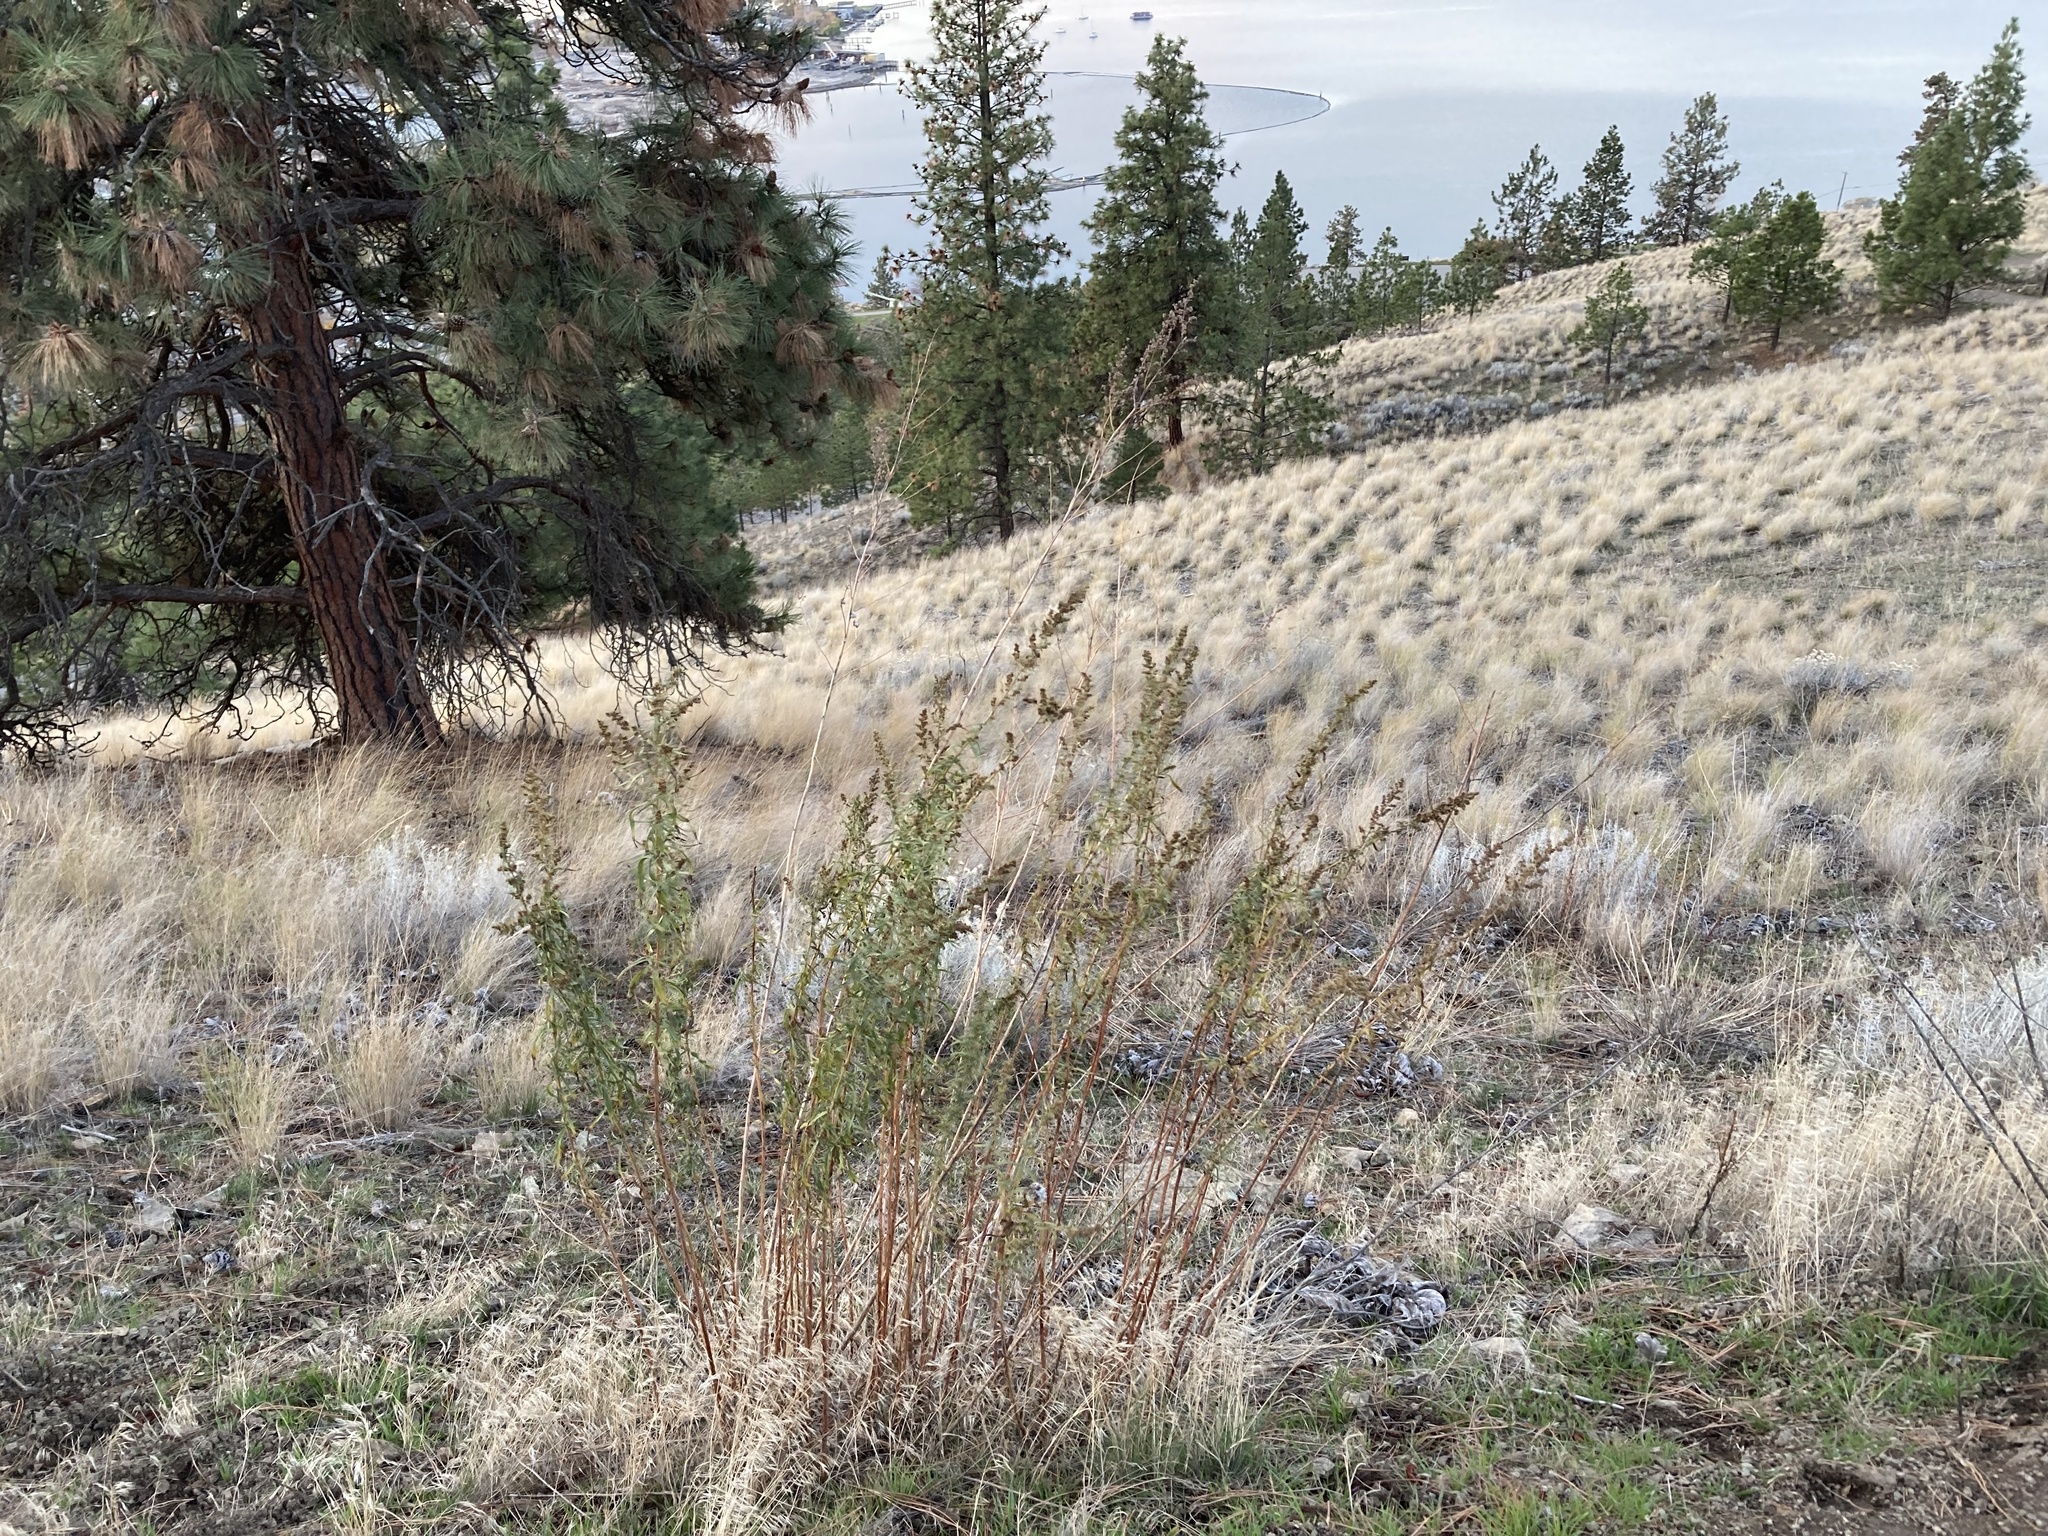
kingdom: Plantae
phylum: Tracheophyta
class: Magnoliopsida
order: Asterales
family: Asteraceae
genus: Artemisia
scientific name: Artemisia dracunculus
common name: Tarragon
